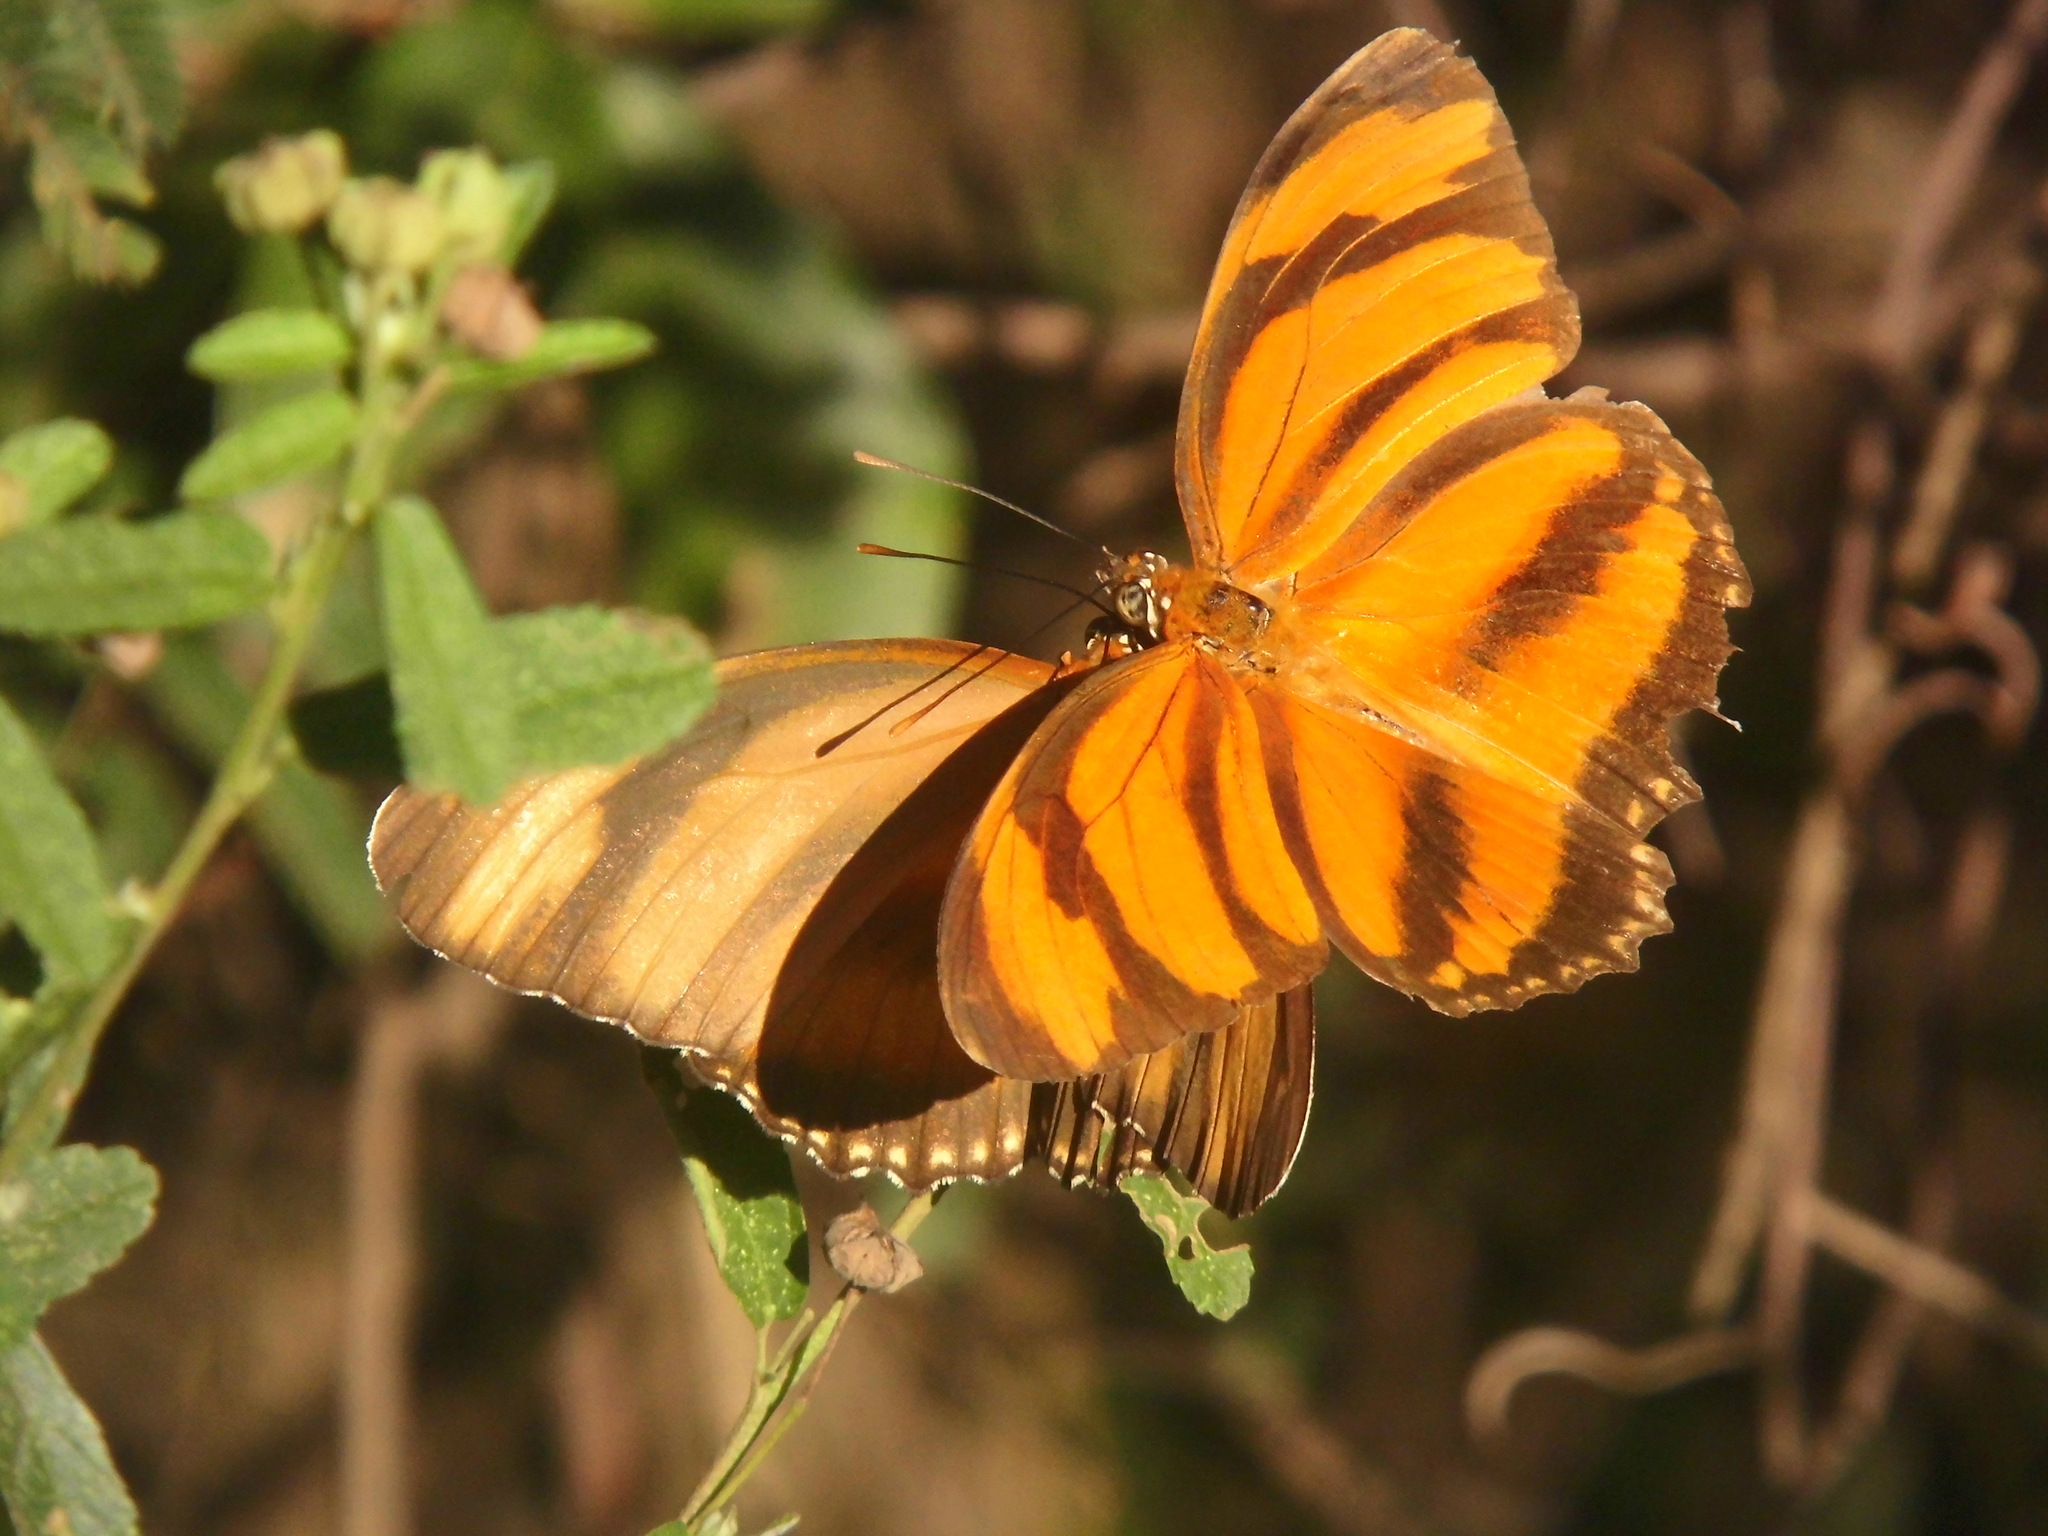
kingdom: Animalia
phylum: Arthropoda
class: Insecta
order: Lepidoptera
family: Nymphalidae
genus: Dryadula
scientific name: Dryadula phaetusa
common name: Banded orange heliconian
